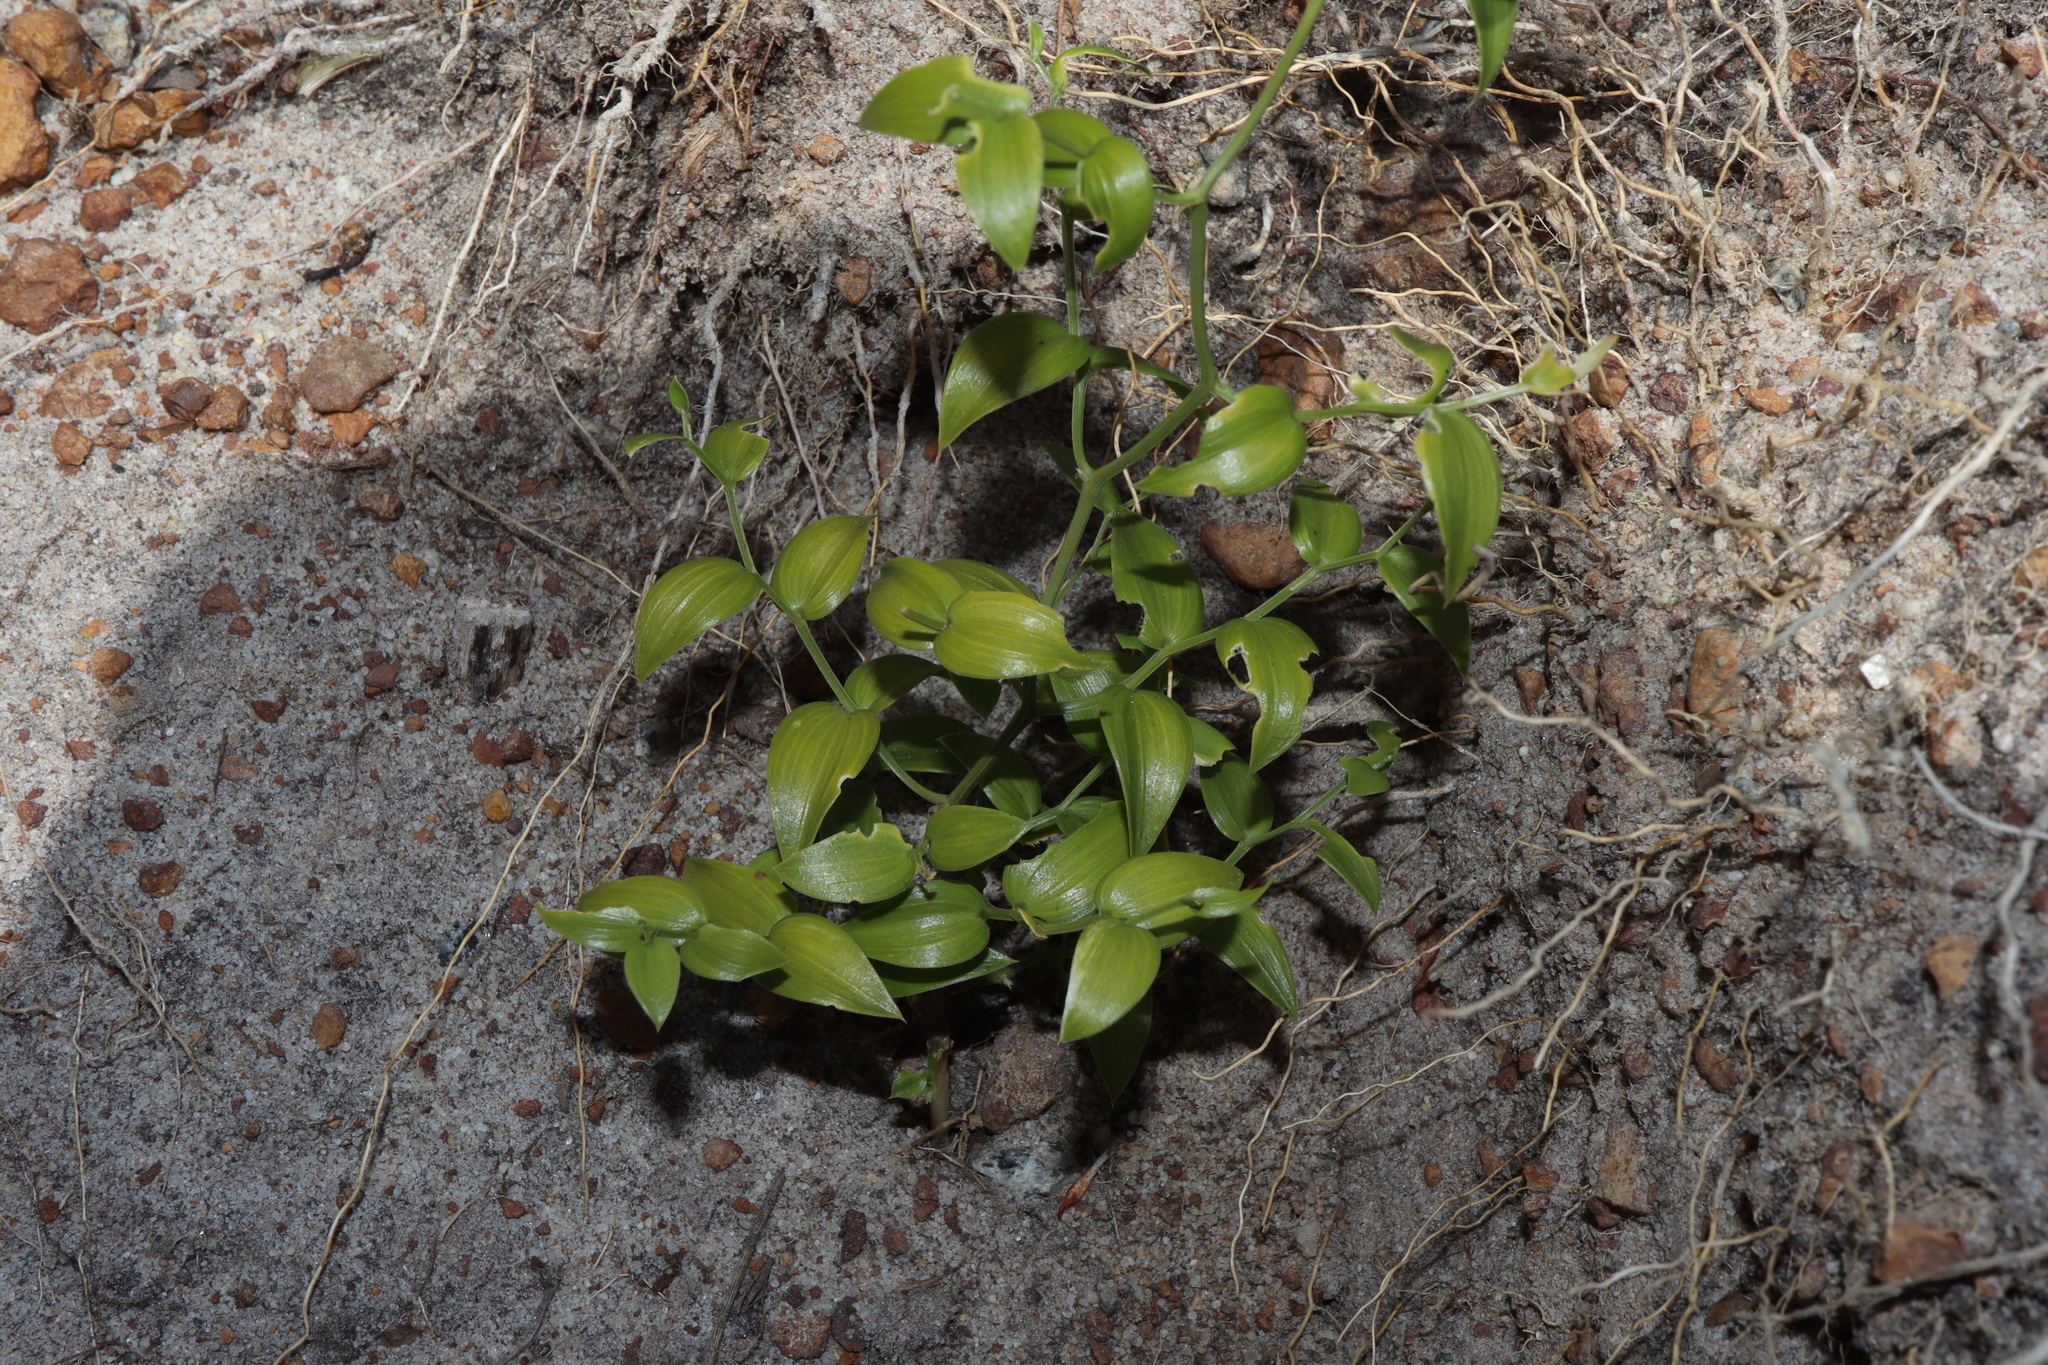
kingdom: Plantae
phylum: Tracheophyta
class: Liliopsida
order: Asparagales
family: Asparagaceae
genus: Asparagus
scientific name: Asparagus asparagoides
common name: African asparagus fern
